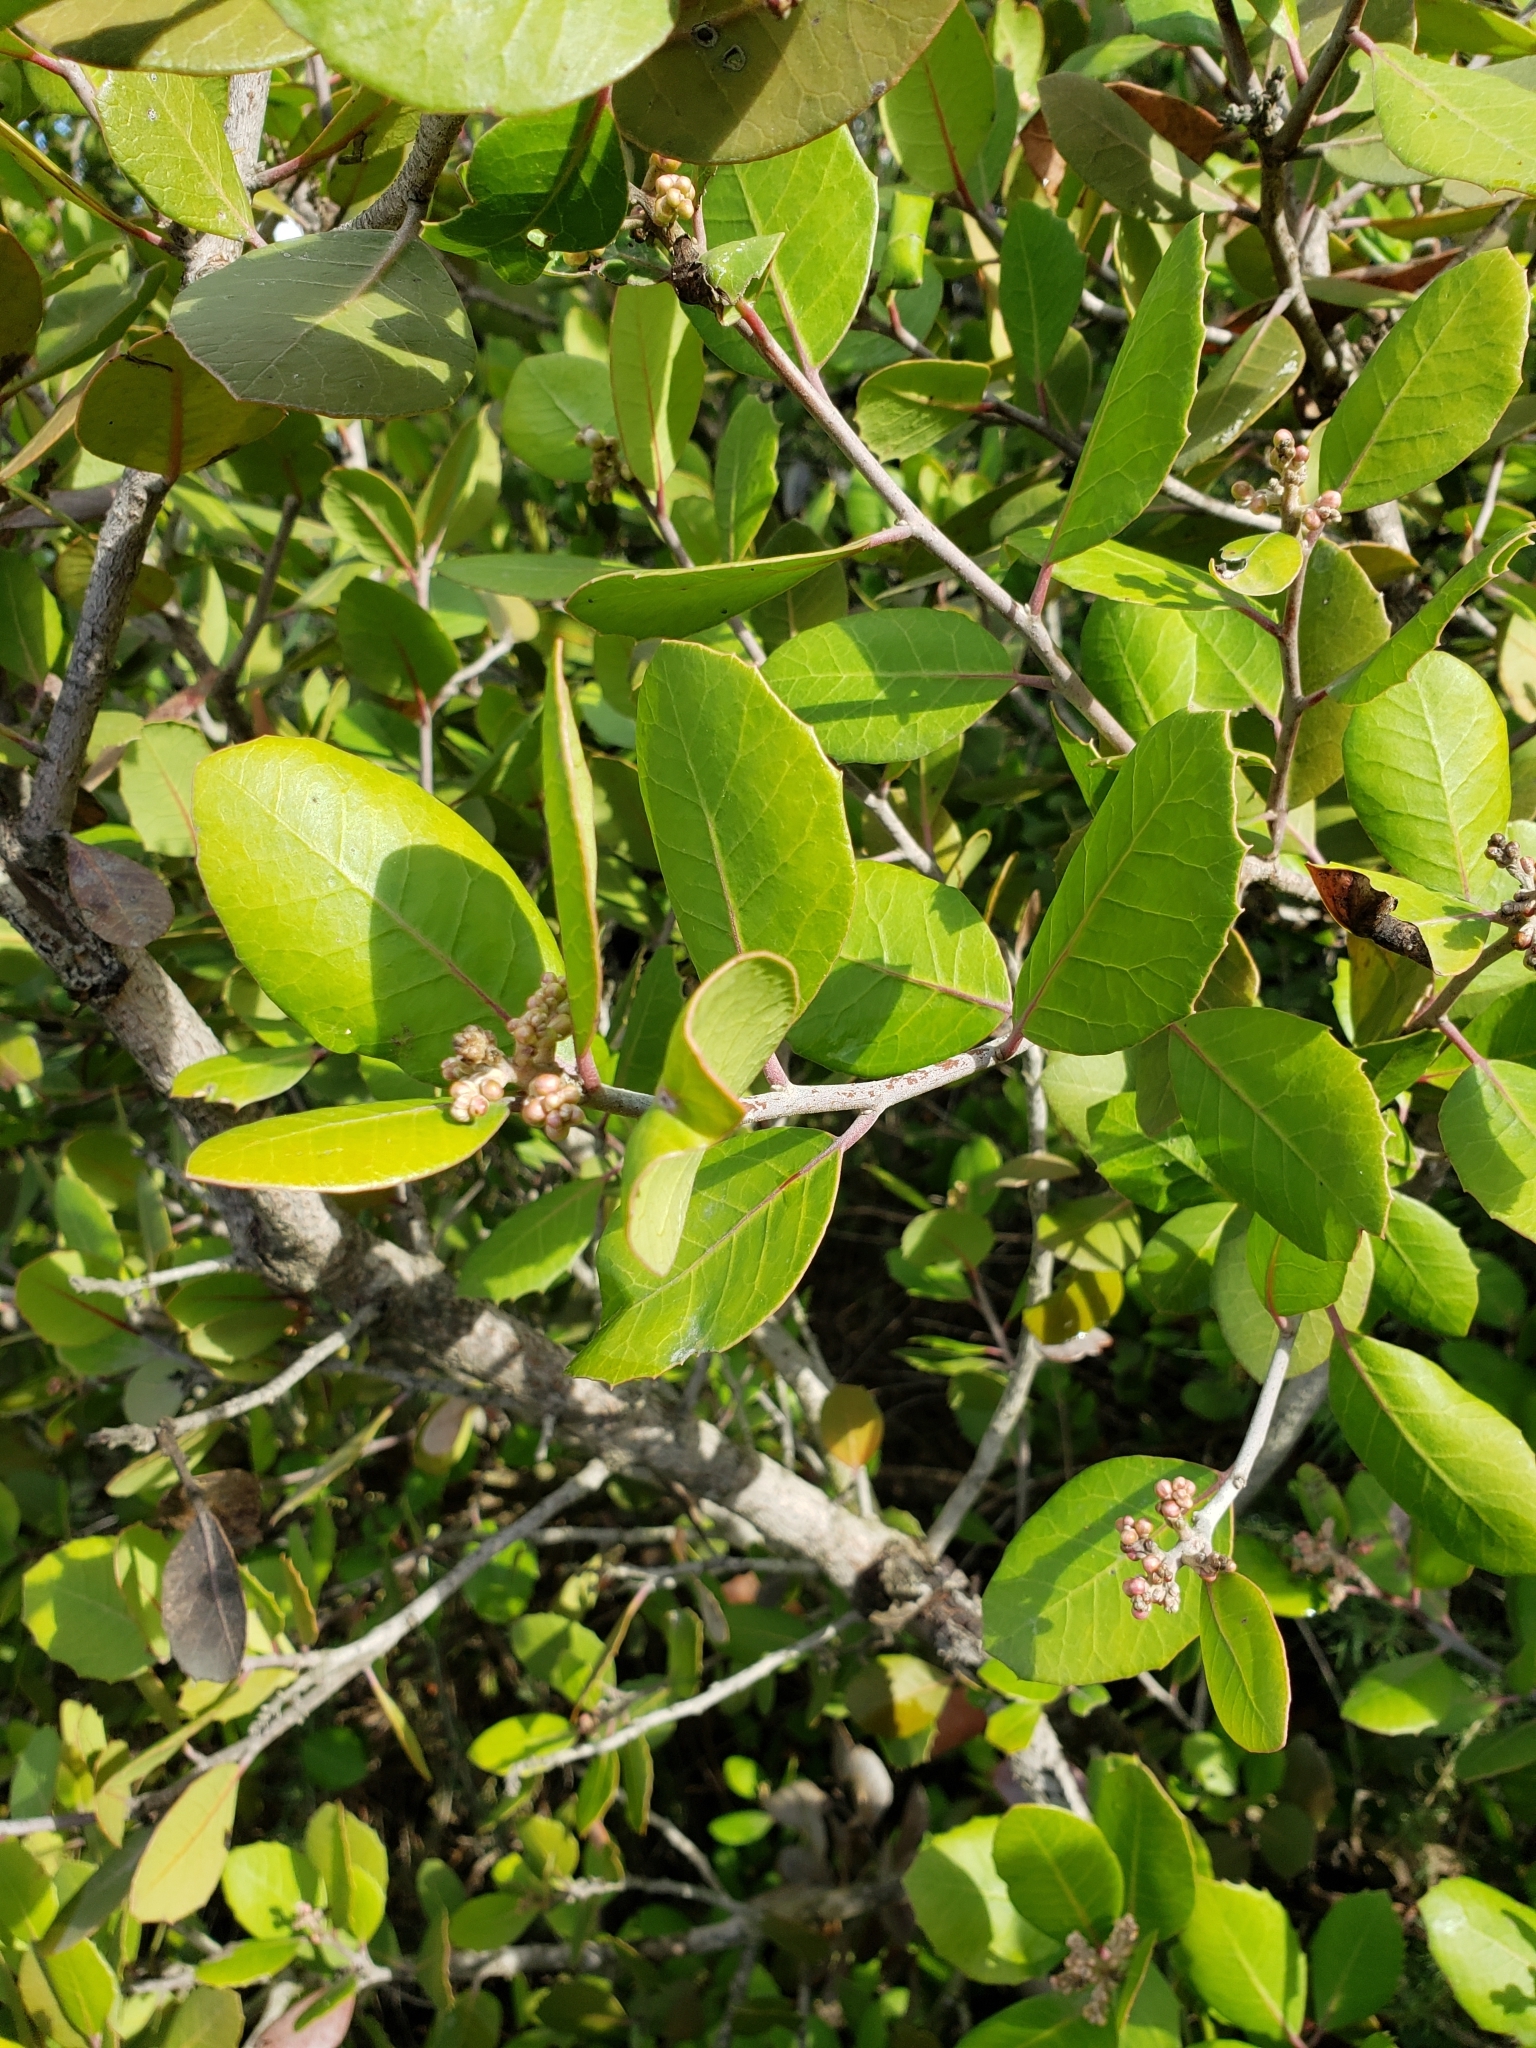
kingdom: Plantae
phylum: Tracheophyta
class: Magnoliopsida
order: Sapindales
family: Anacardiaceae
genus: Rhus
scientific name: Rhus integrifolia
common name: Lemonade sumac
